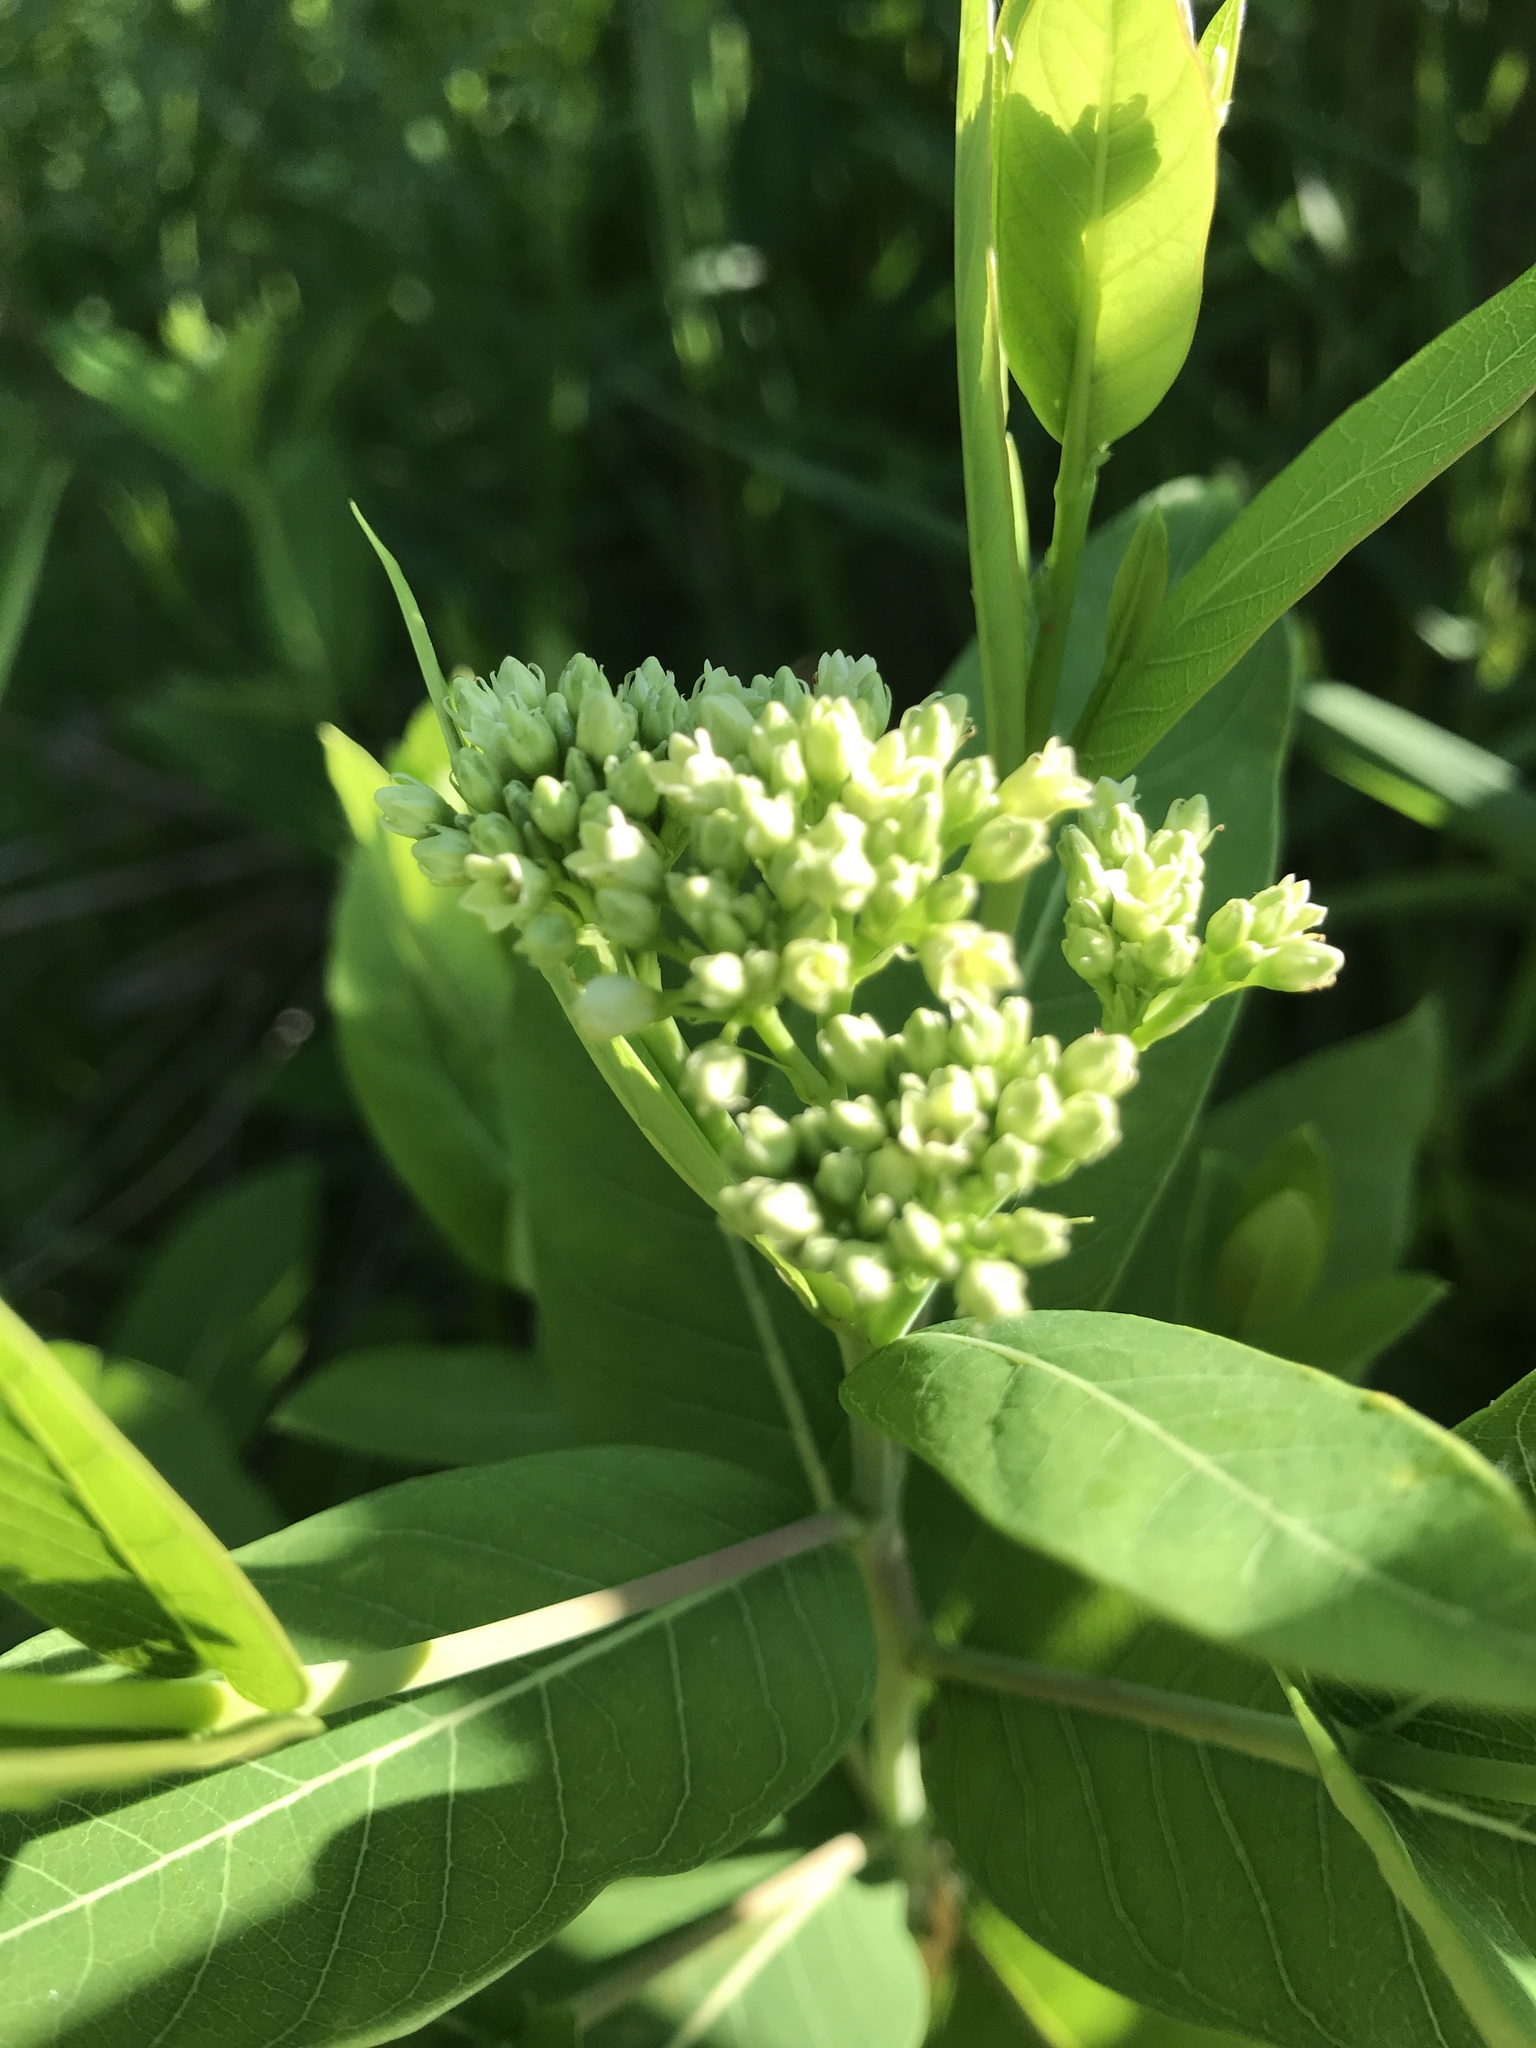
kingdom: Plantae
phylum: Tracheophyta
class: Magnoliopsida
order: Gentianales
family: Apocynaceae
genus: Apocynum
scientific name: Apocynum cannabinum
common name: Hemp dogbane
